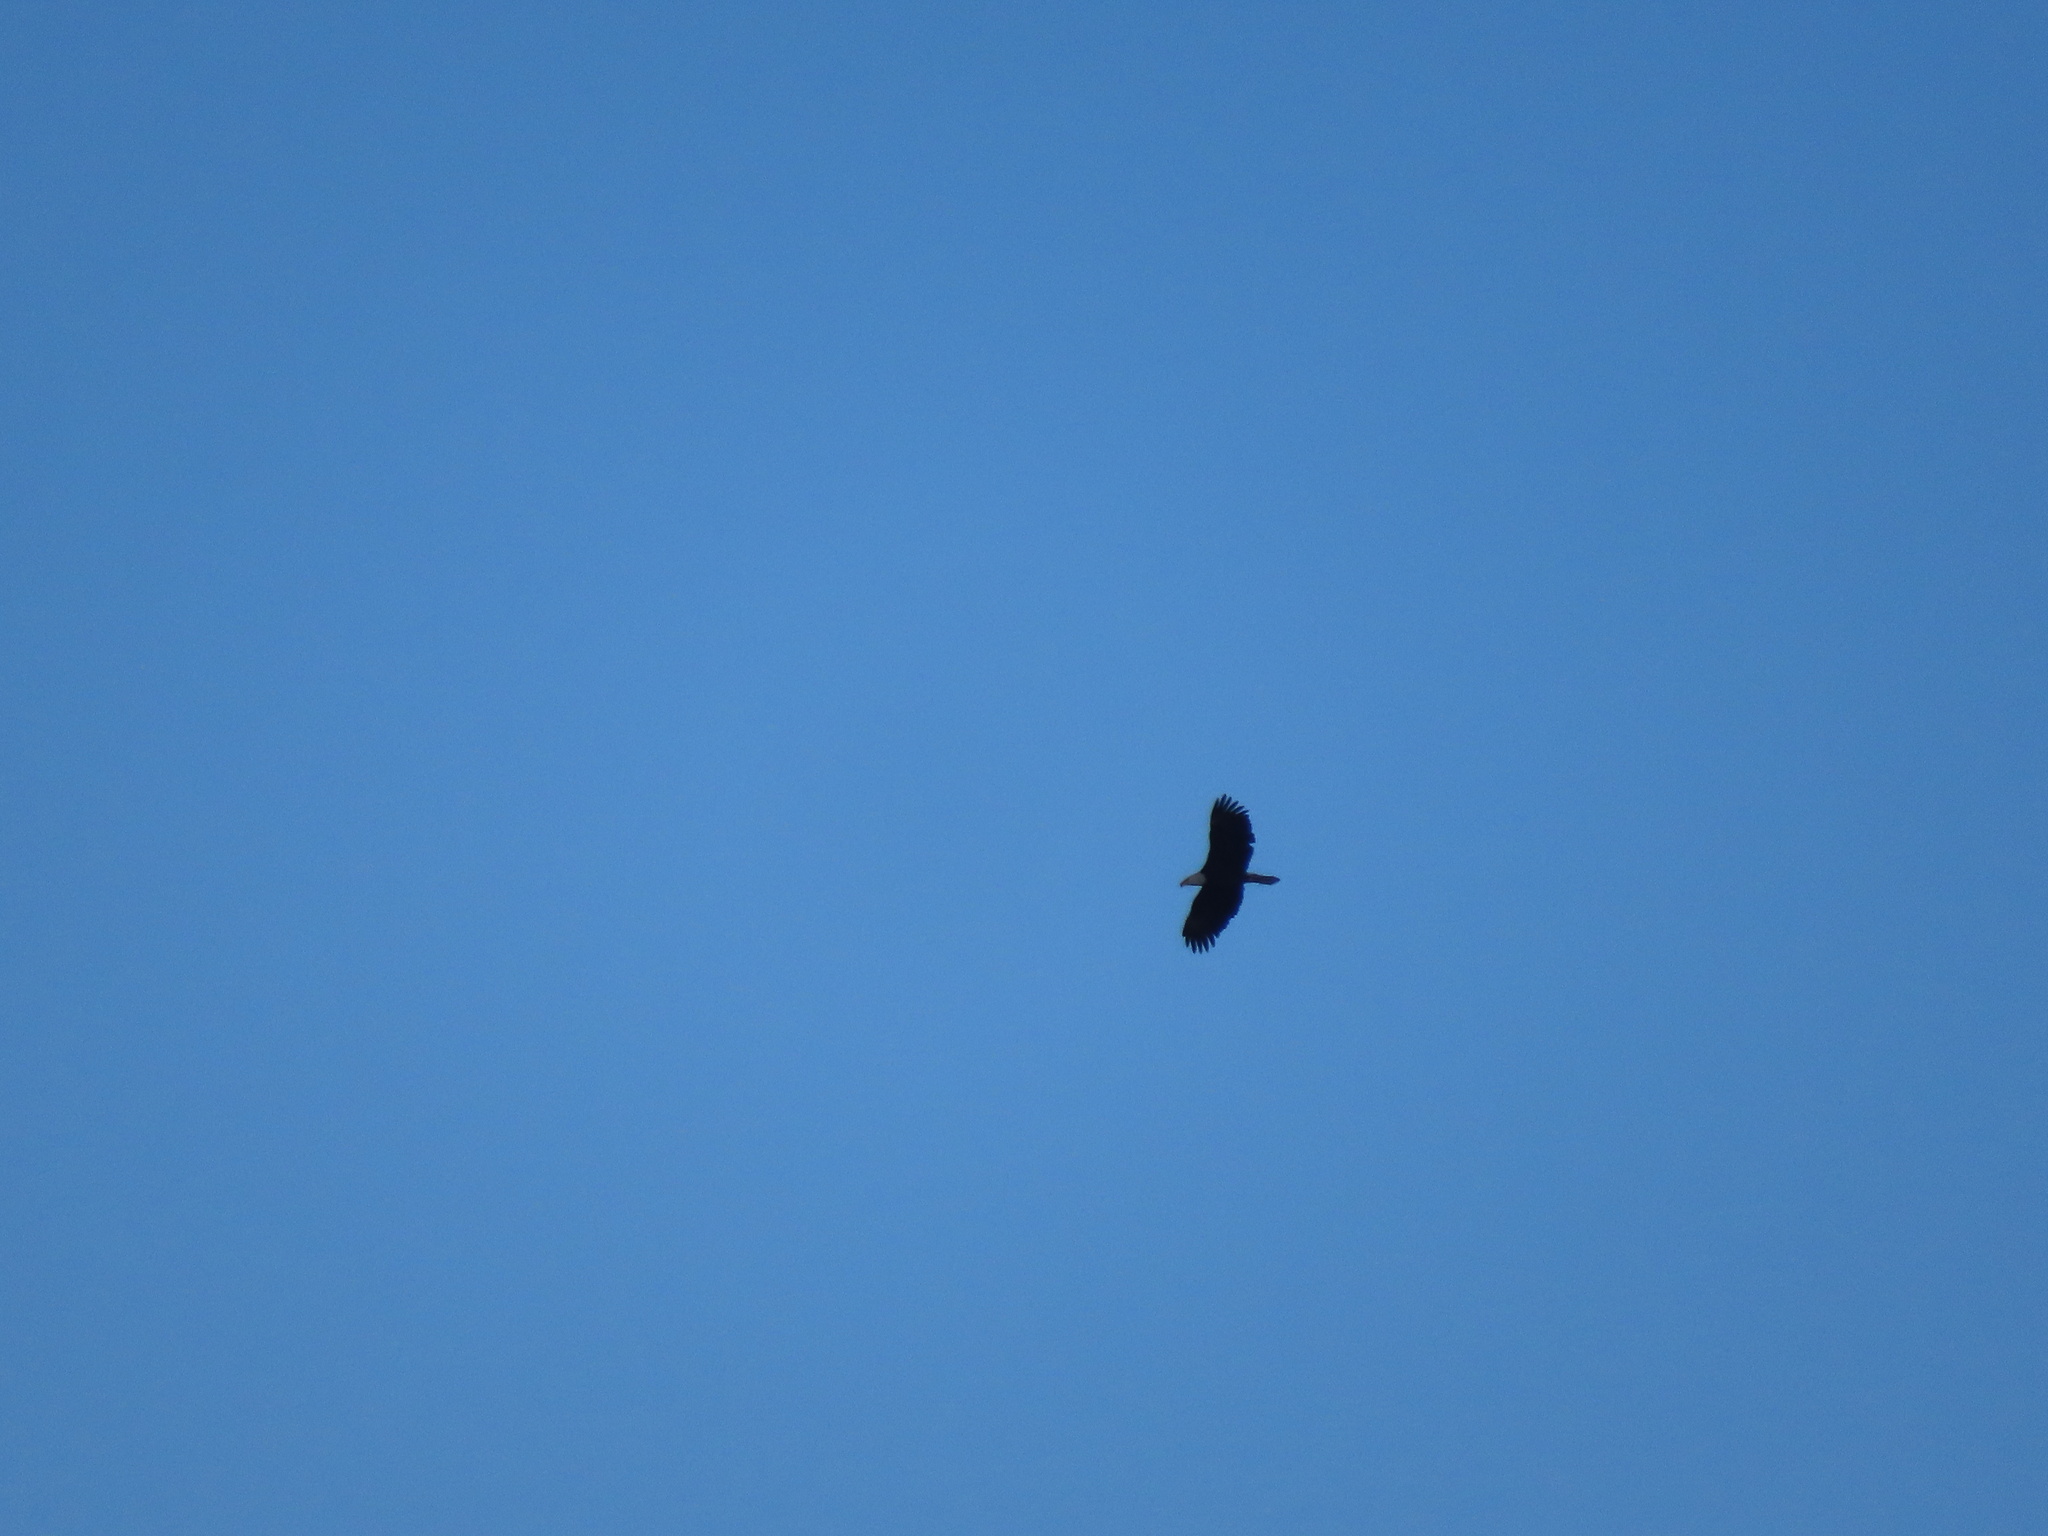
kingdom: Animalia
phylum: Chordata
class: Aves
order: Accipitriformes
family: Accipitridae
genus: Haliaeetus
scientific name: Haliaeetus leucocephalus
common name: Bald eagle
